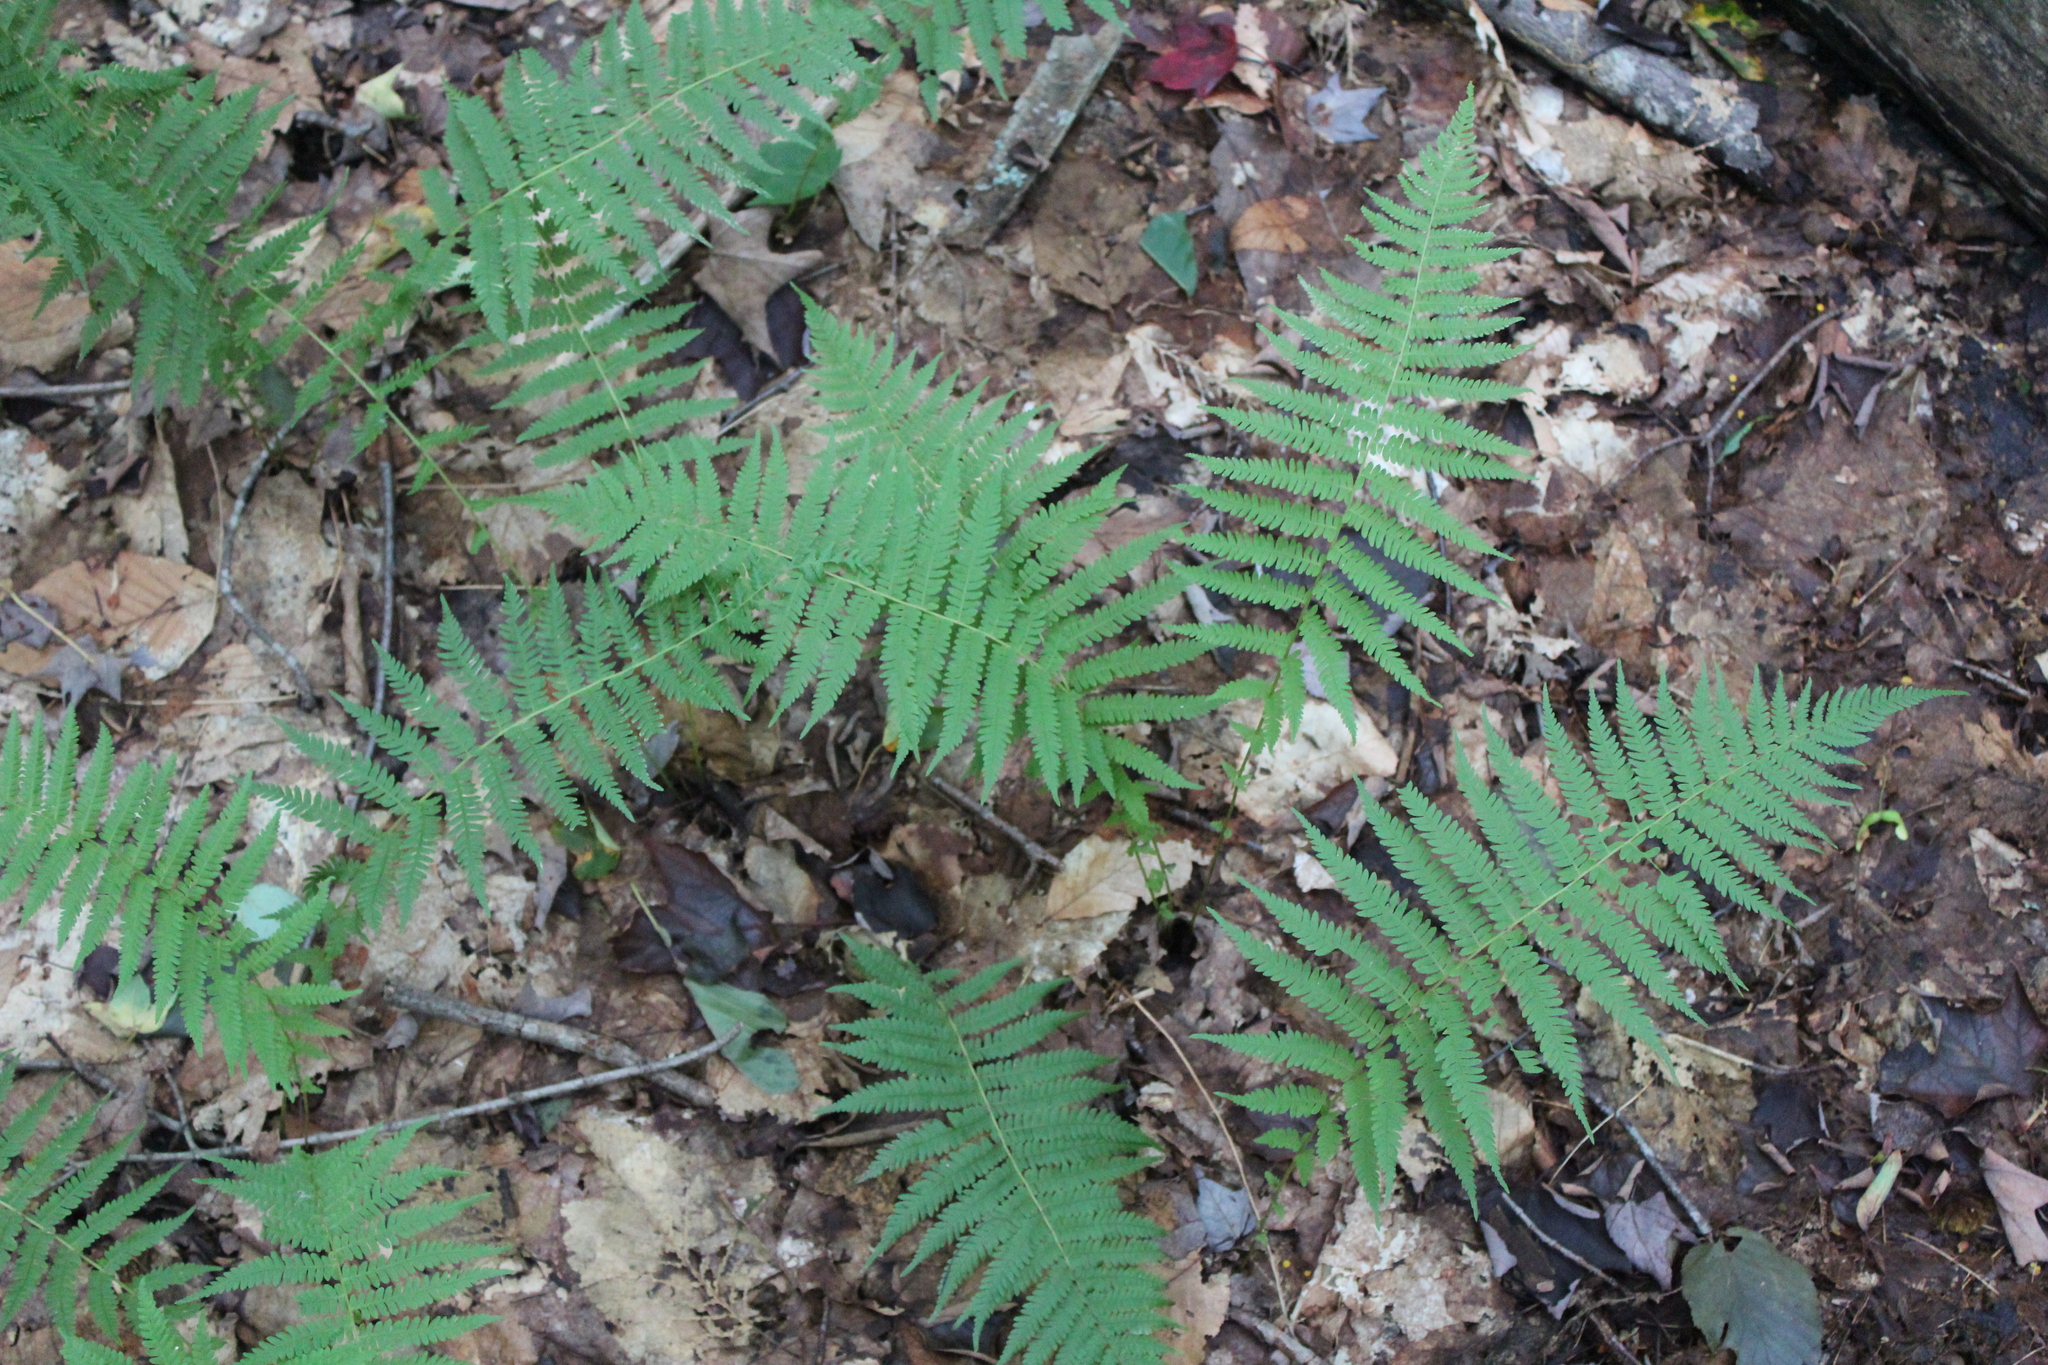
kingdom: Plantae
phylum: Tracheophyta
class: Polypodiopsida
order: Polypodiales
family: Thelypteridaceae
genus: Amauropelta
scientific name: Amauropelta noveboracensis
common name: New york fern
